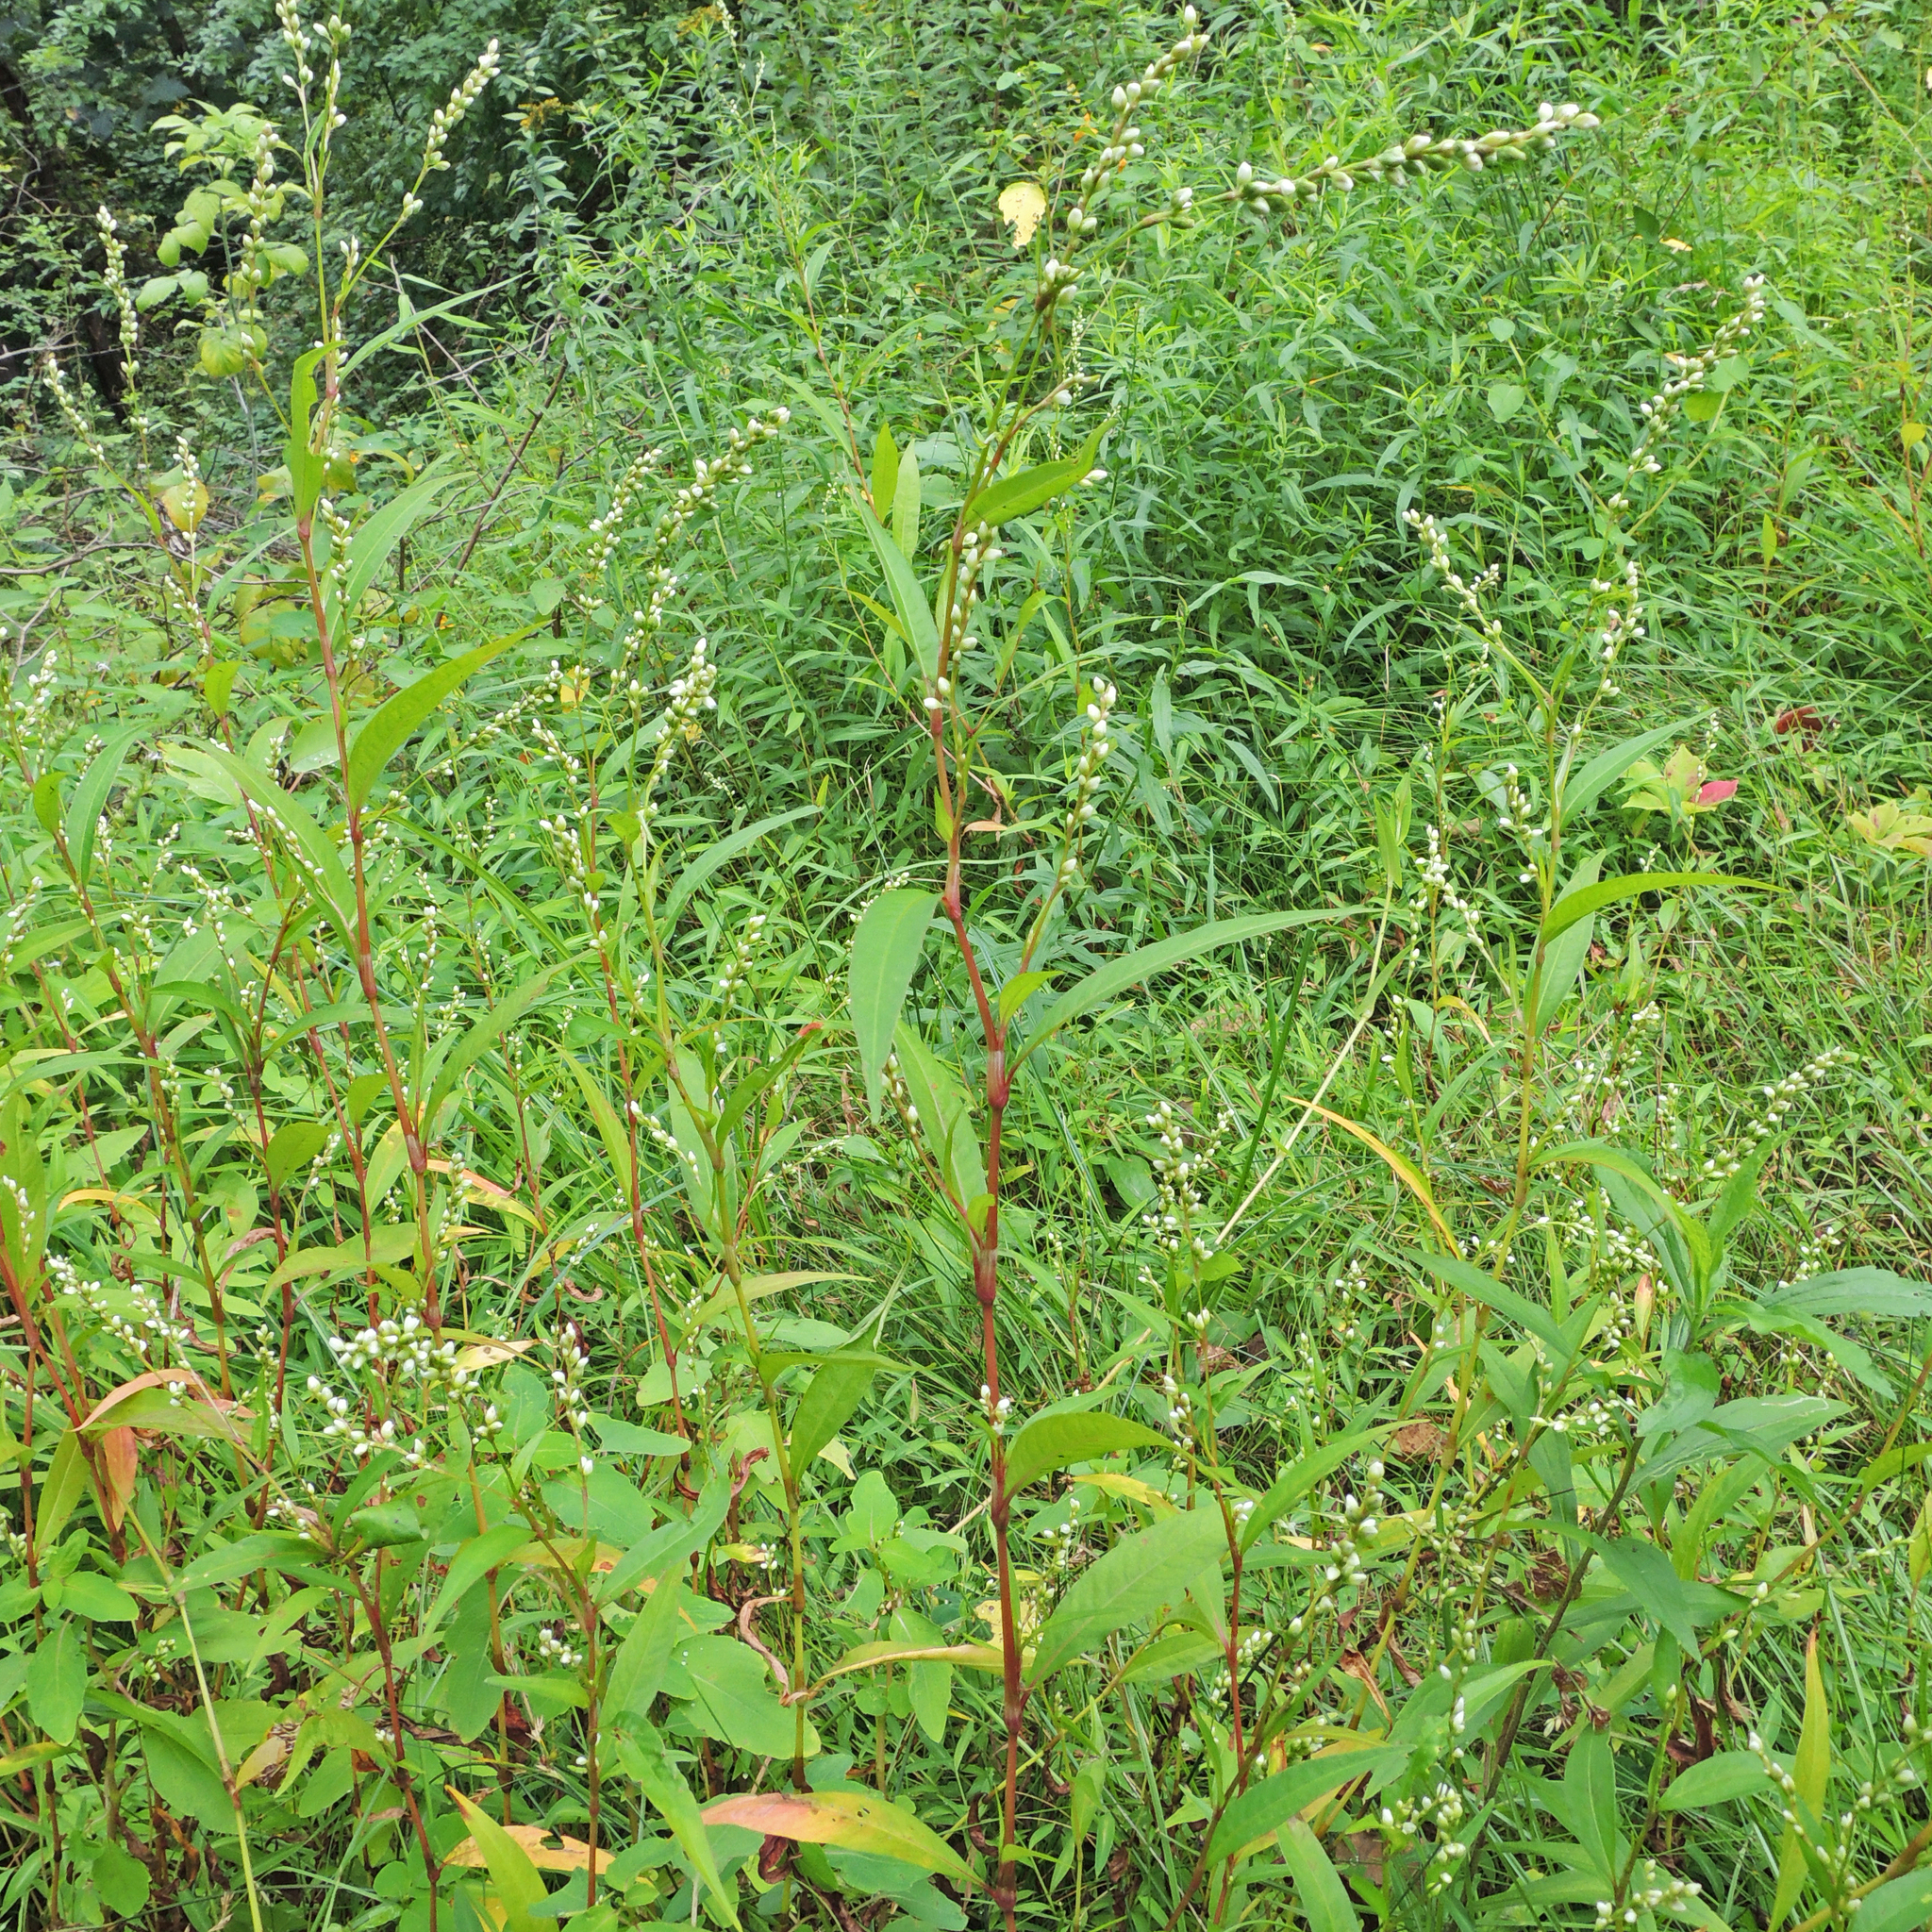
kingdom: Plantae
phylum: Tracheophyta
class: Magnoliopsida
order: Caryophyllales
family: Polygonaceae
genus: Persicaria
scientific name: Persicaria punctata
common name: Dotted smartweed
